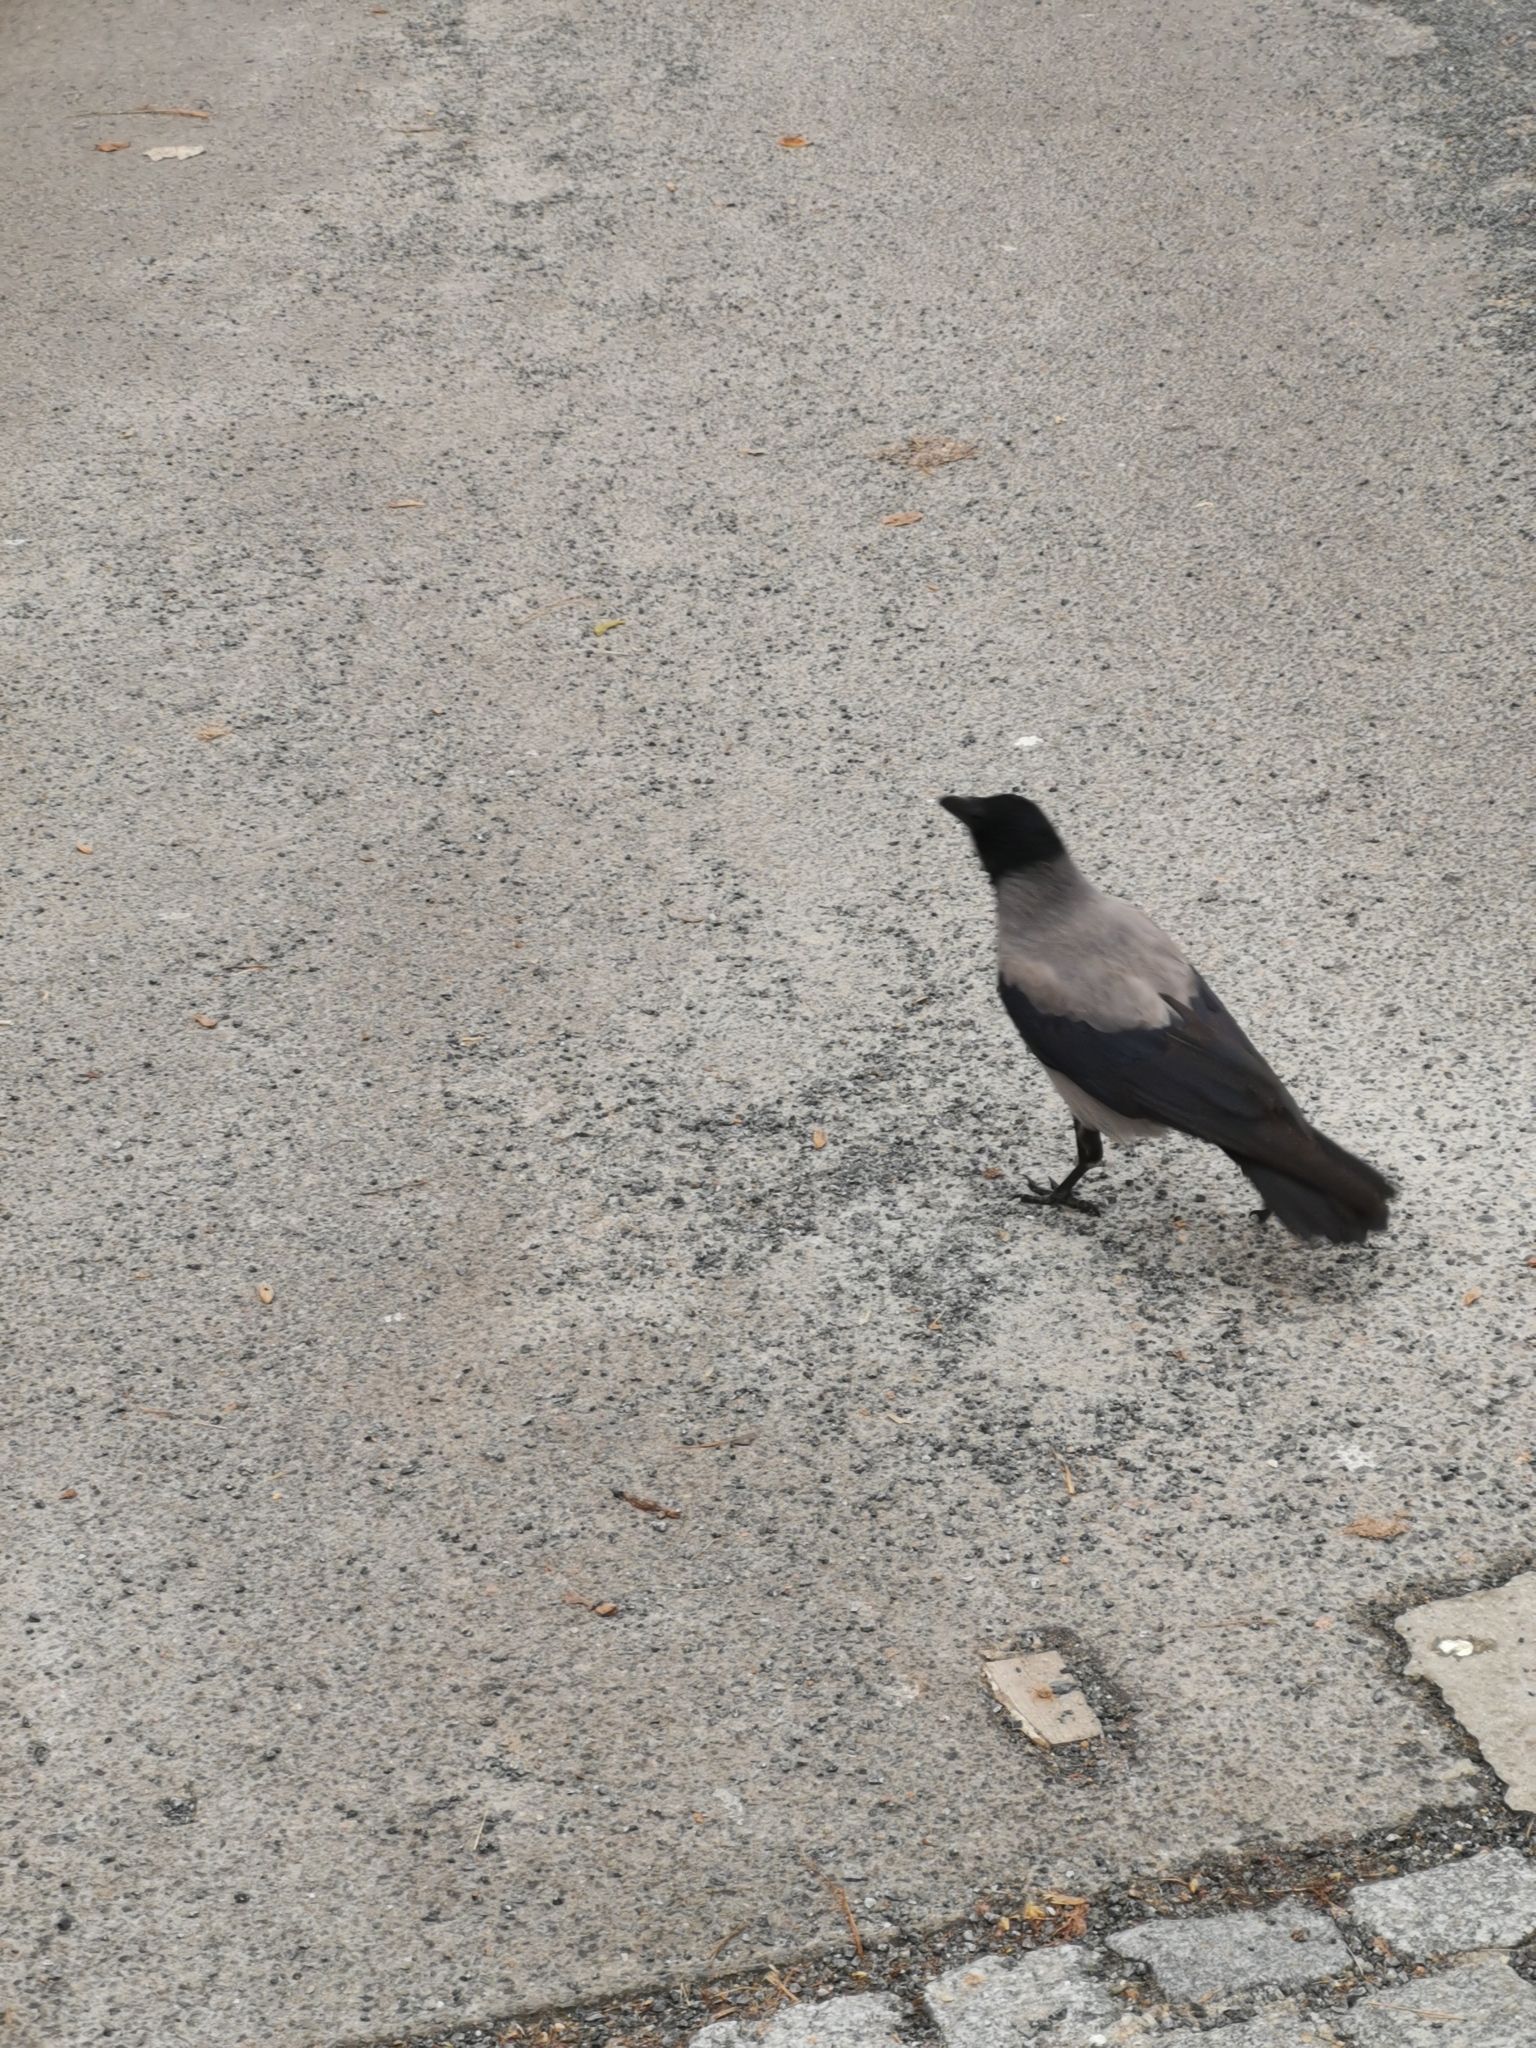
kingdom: Animalia
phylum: Chordata
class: Aves
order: Passeriformes
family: Corvidae
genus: Corvus
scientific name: Corvus cornix
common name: Hooded crow
